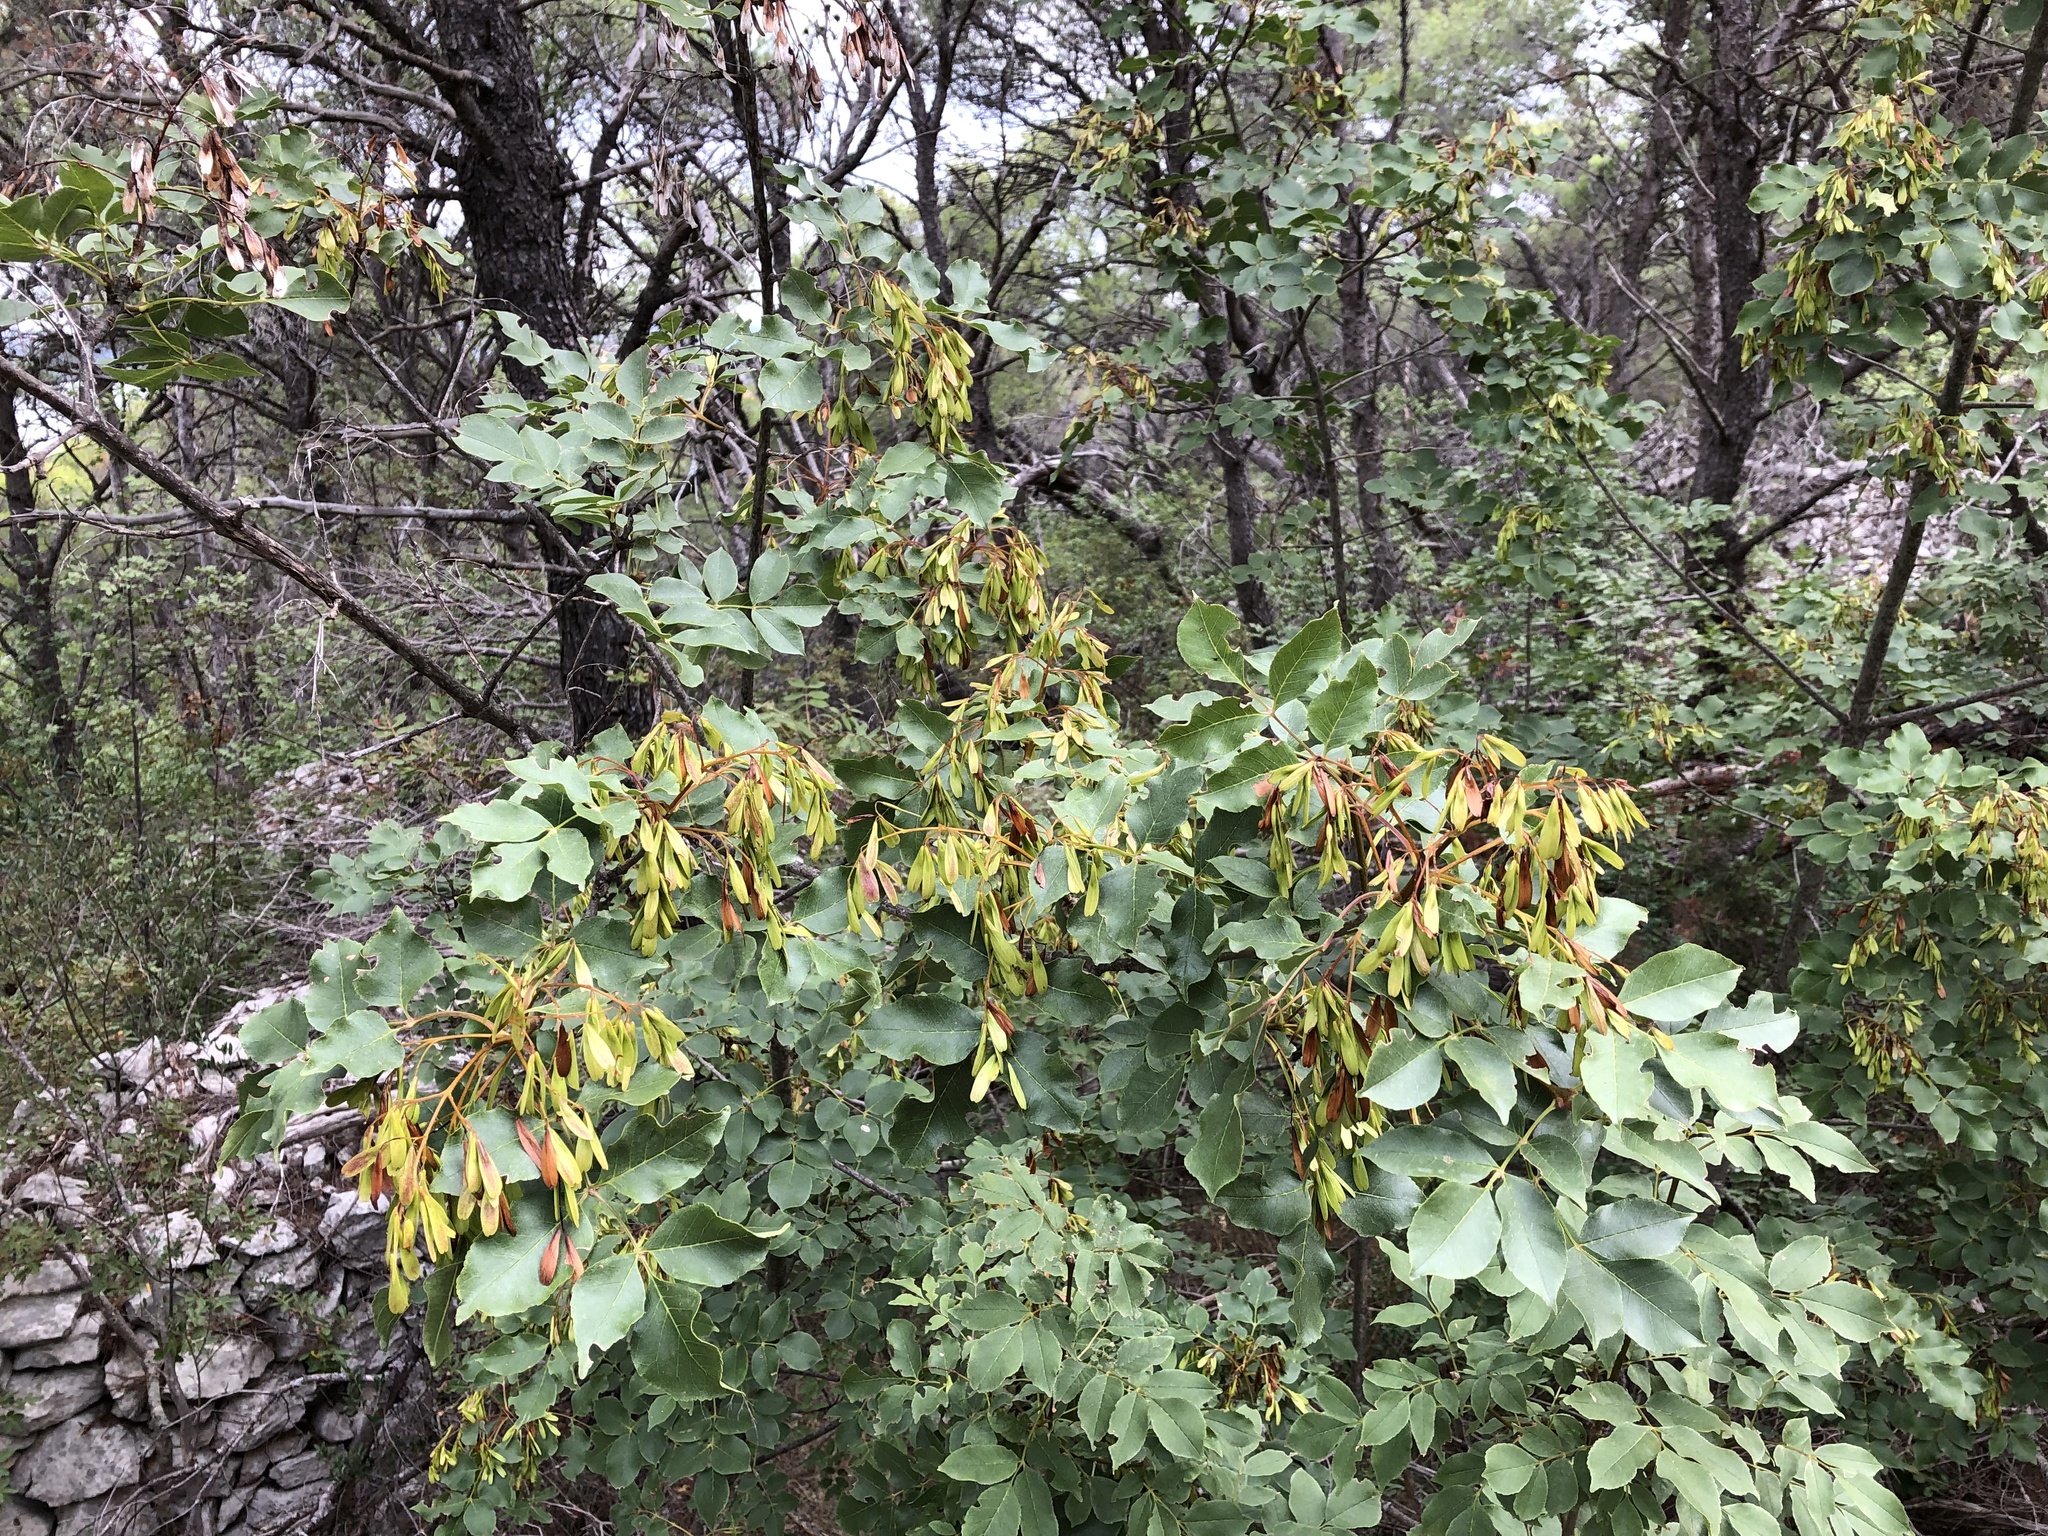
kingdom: Plantae
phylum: Tracheophyta
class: Magnoliopsida
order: Lamiales
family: Oleaceae
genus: Fraxinus
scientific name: Fraxinus ornus
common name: Manna ash
